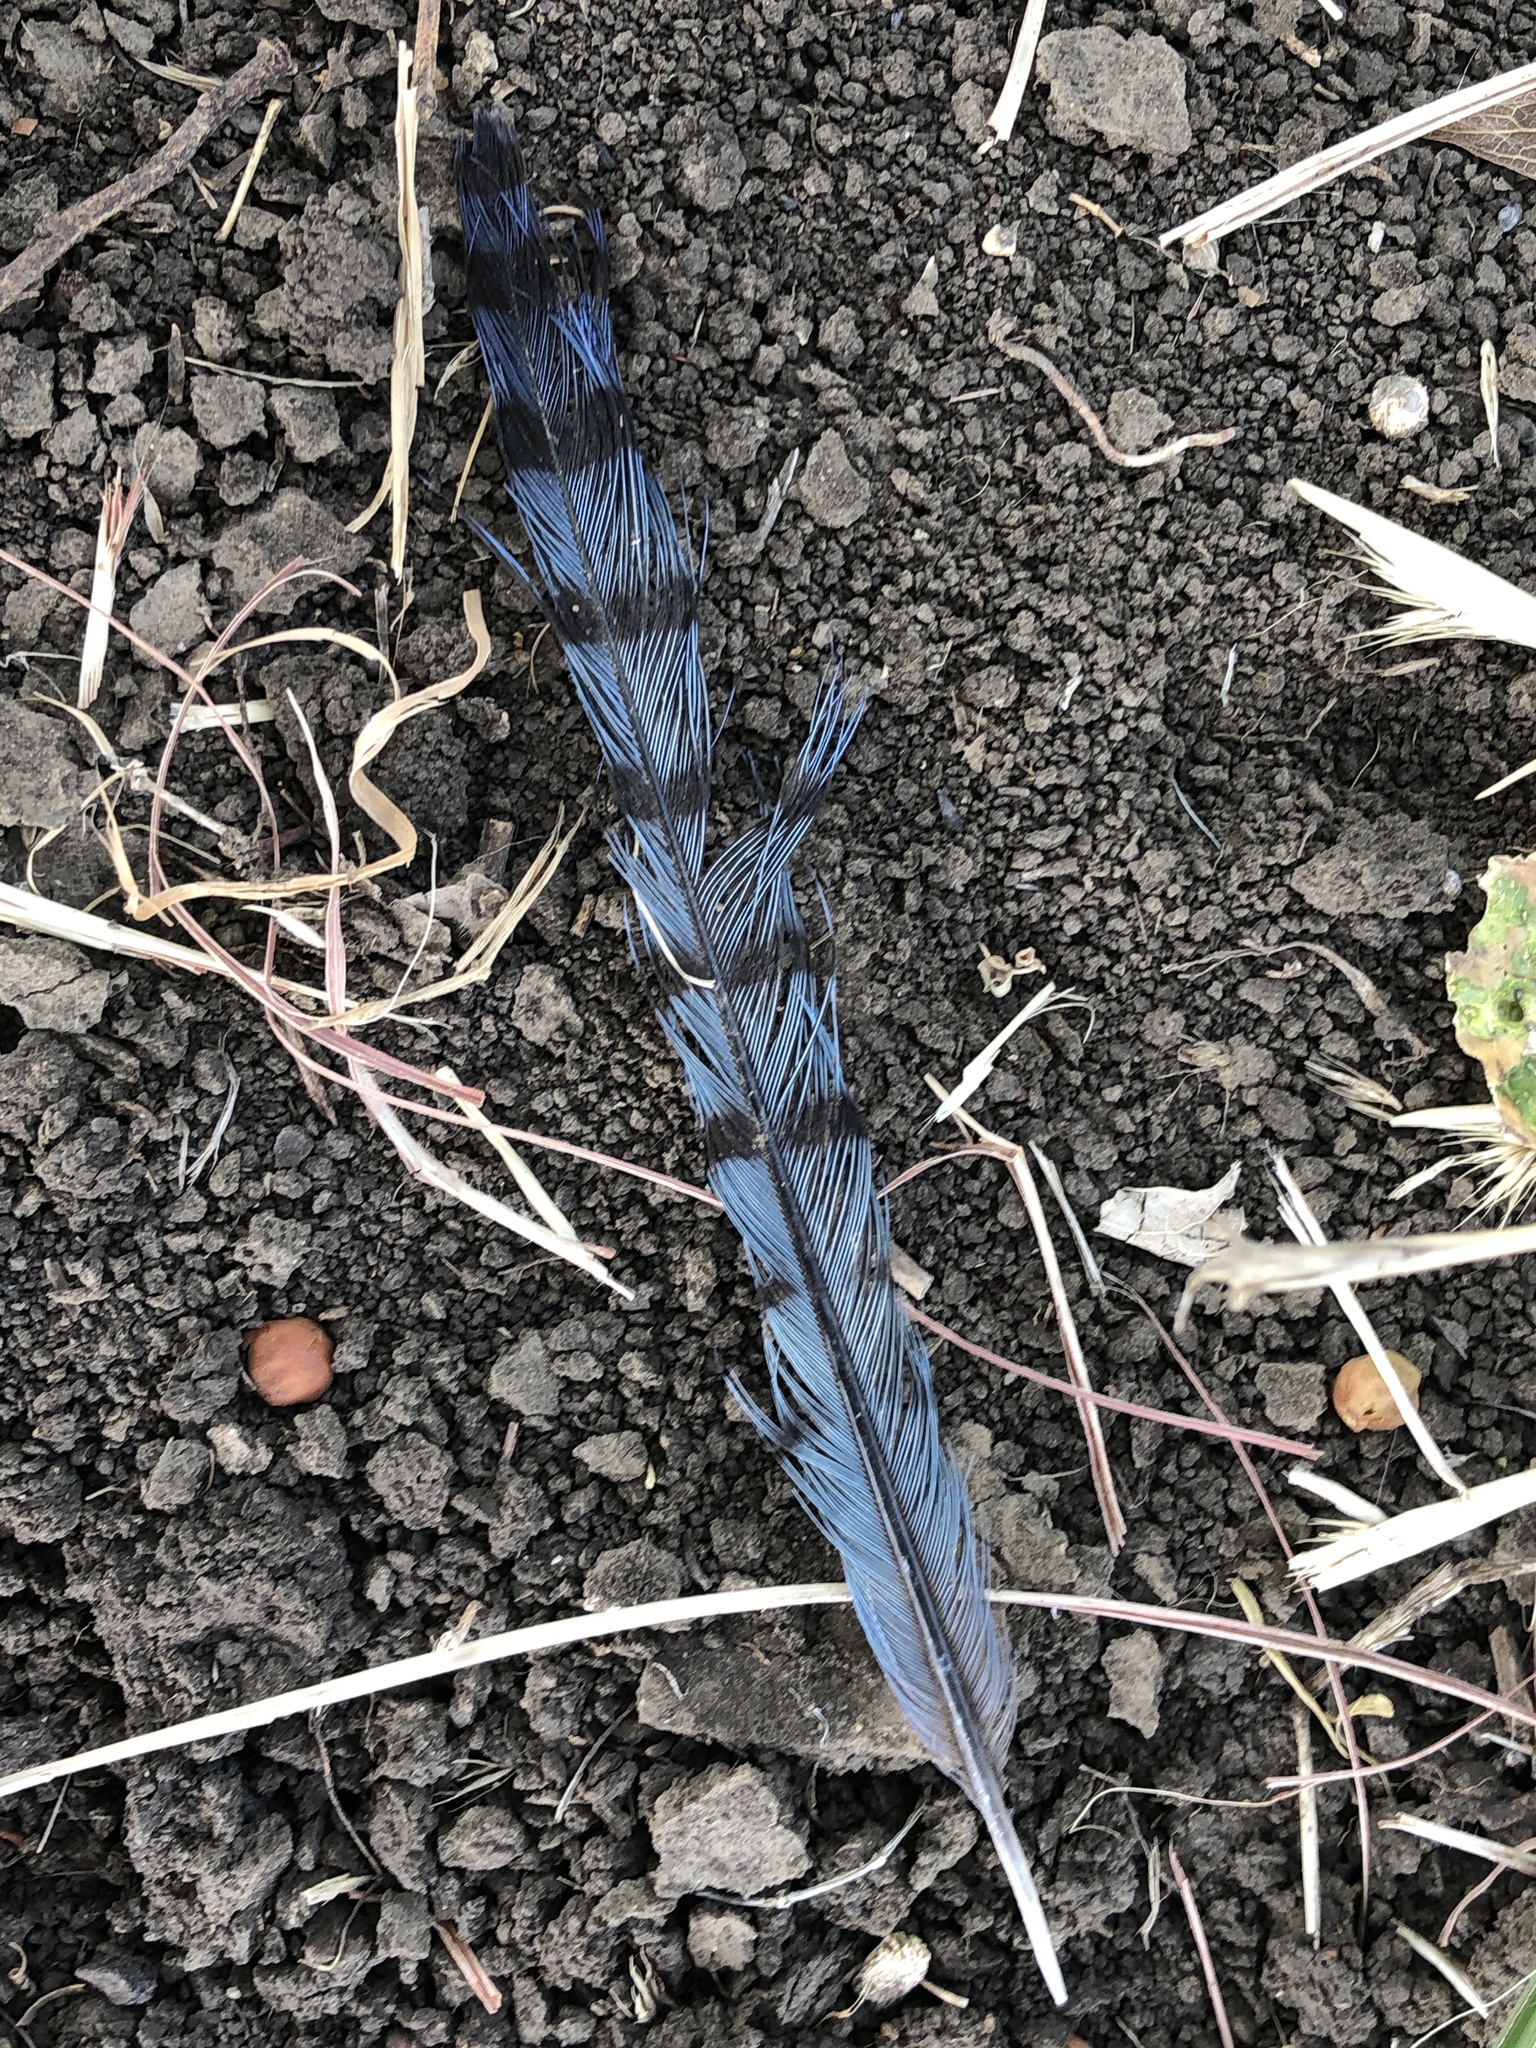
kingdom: Animalia
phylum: Chordata
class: Aves
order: Passeriformes
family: Corvidae
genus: Cyanocitta
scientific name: Cyanocitta cristata
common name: Blue jay
